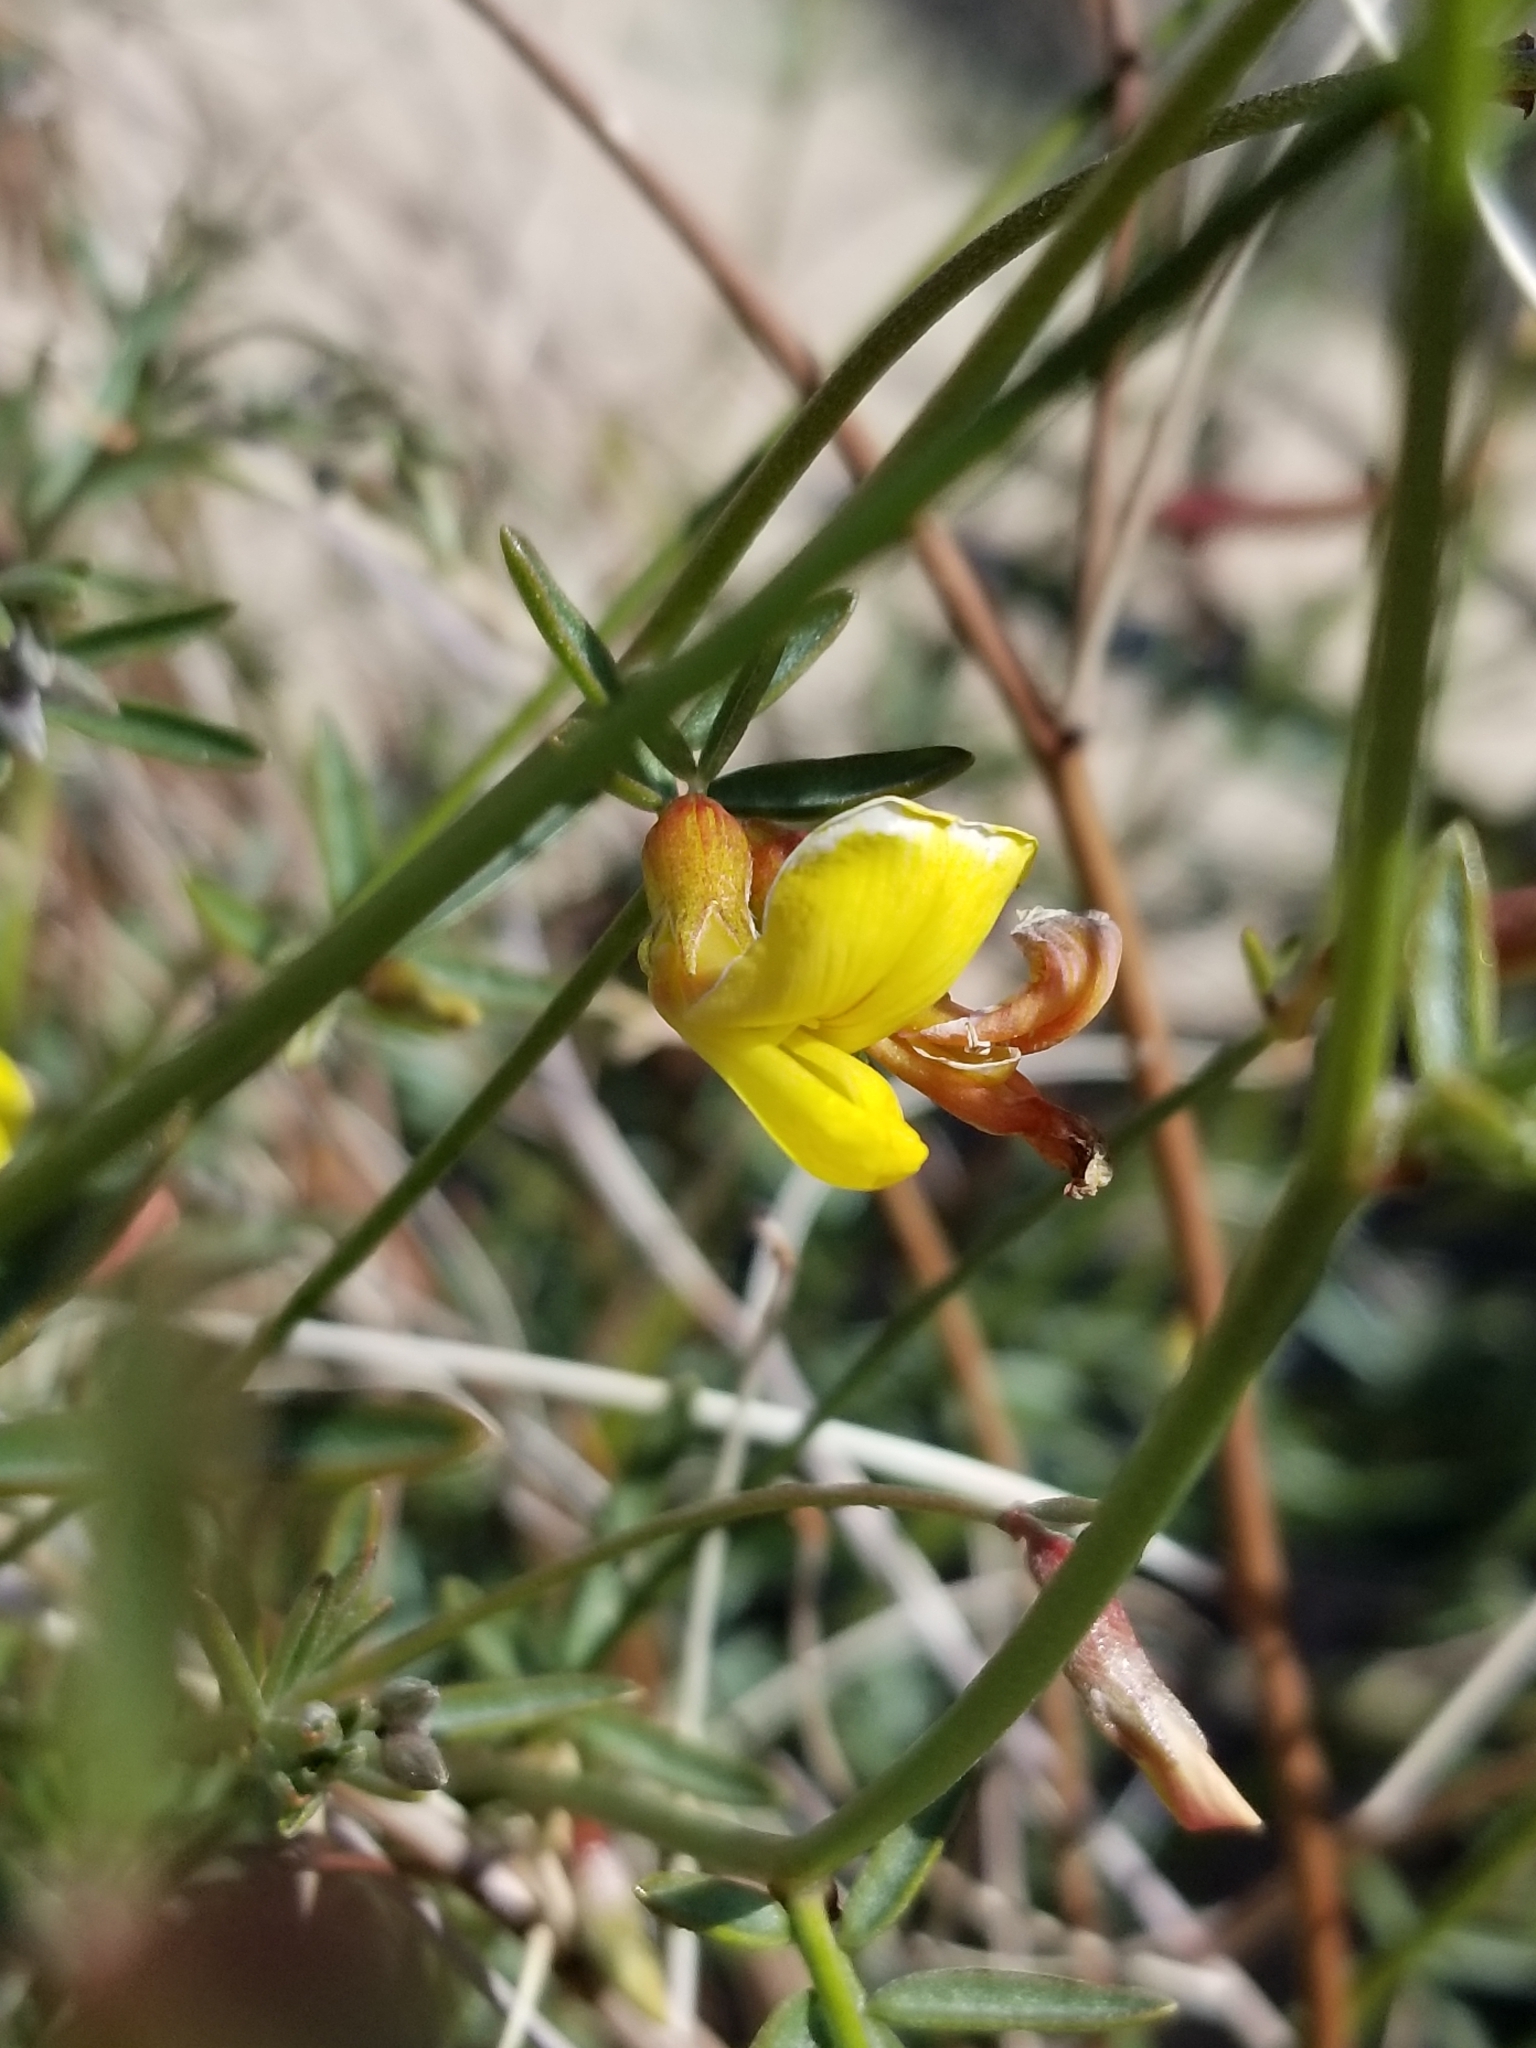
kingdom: Plantae
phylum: Tracheophyta
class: Magnoliopsida
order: Fabales
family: Fabaceae
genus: Acmispon
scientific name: Acmispon rigidus
